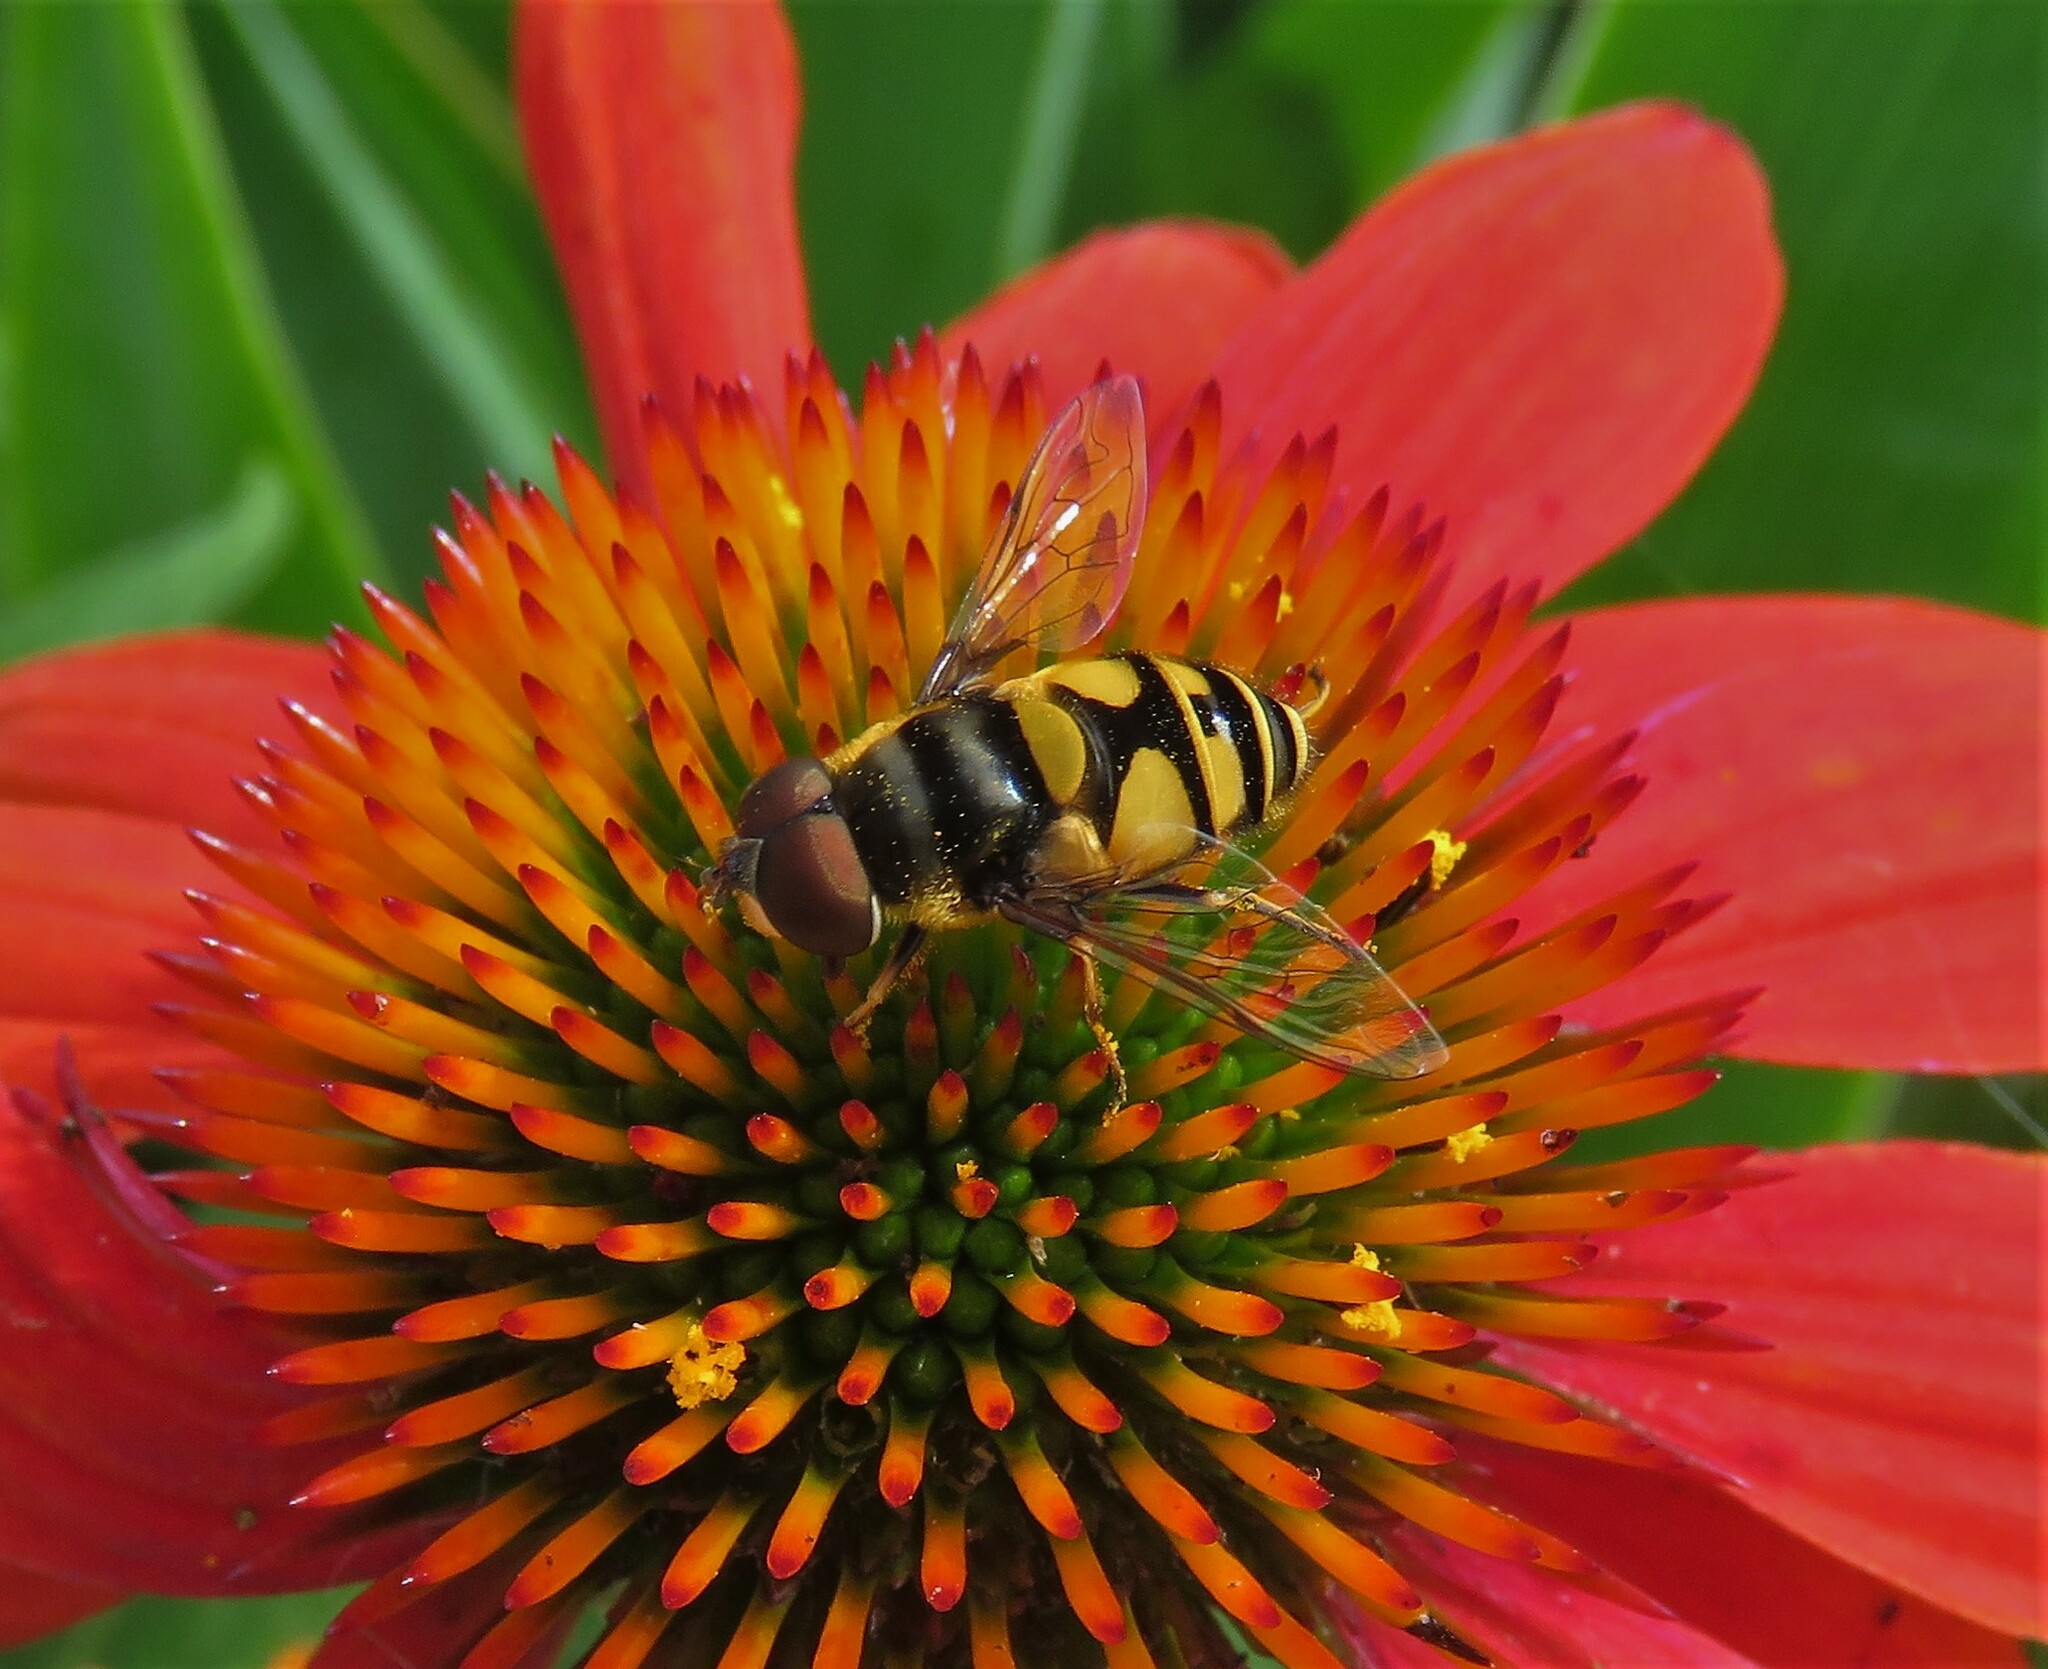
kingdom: Animalia
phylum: Arthropoda
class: Insecta
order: Diptera
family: Syrphidae
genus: Eristalis
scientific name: Eristalis transversa
